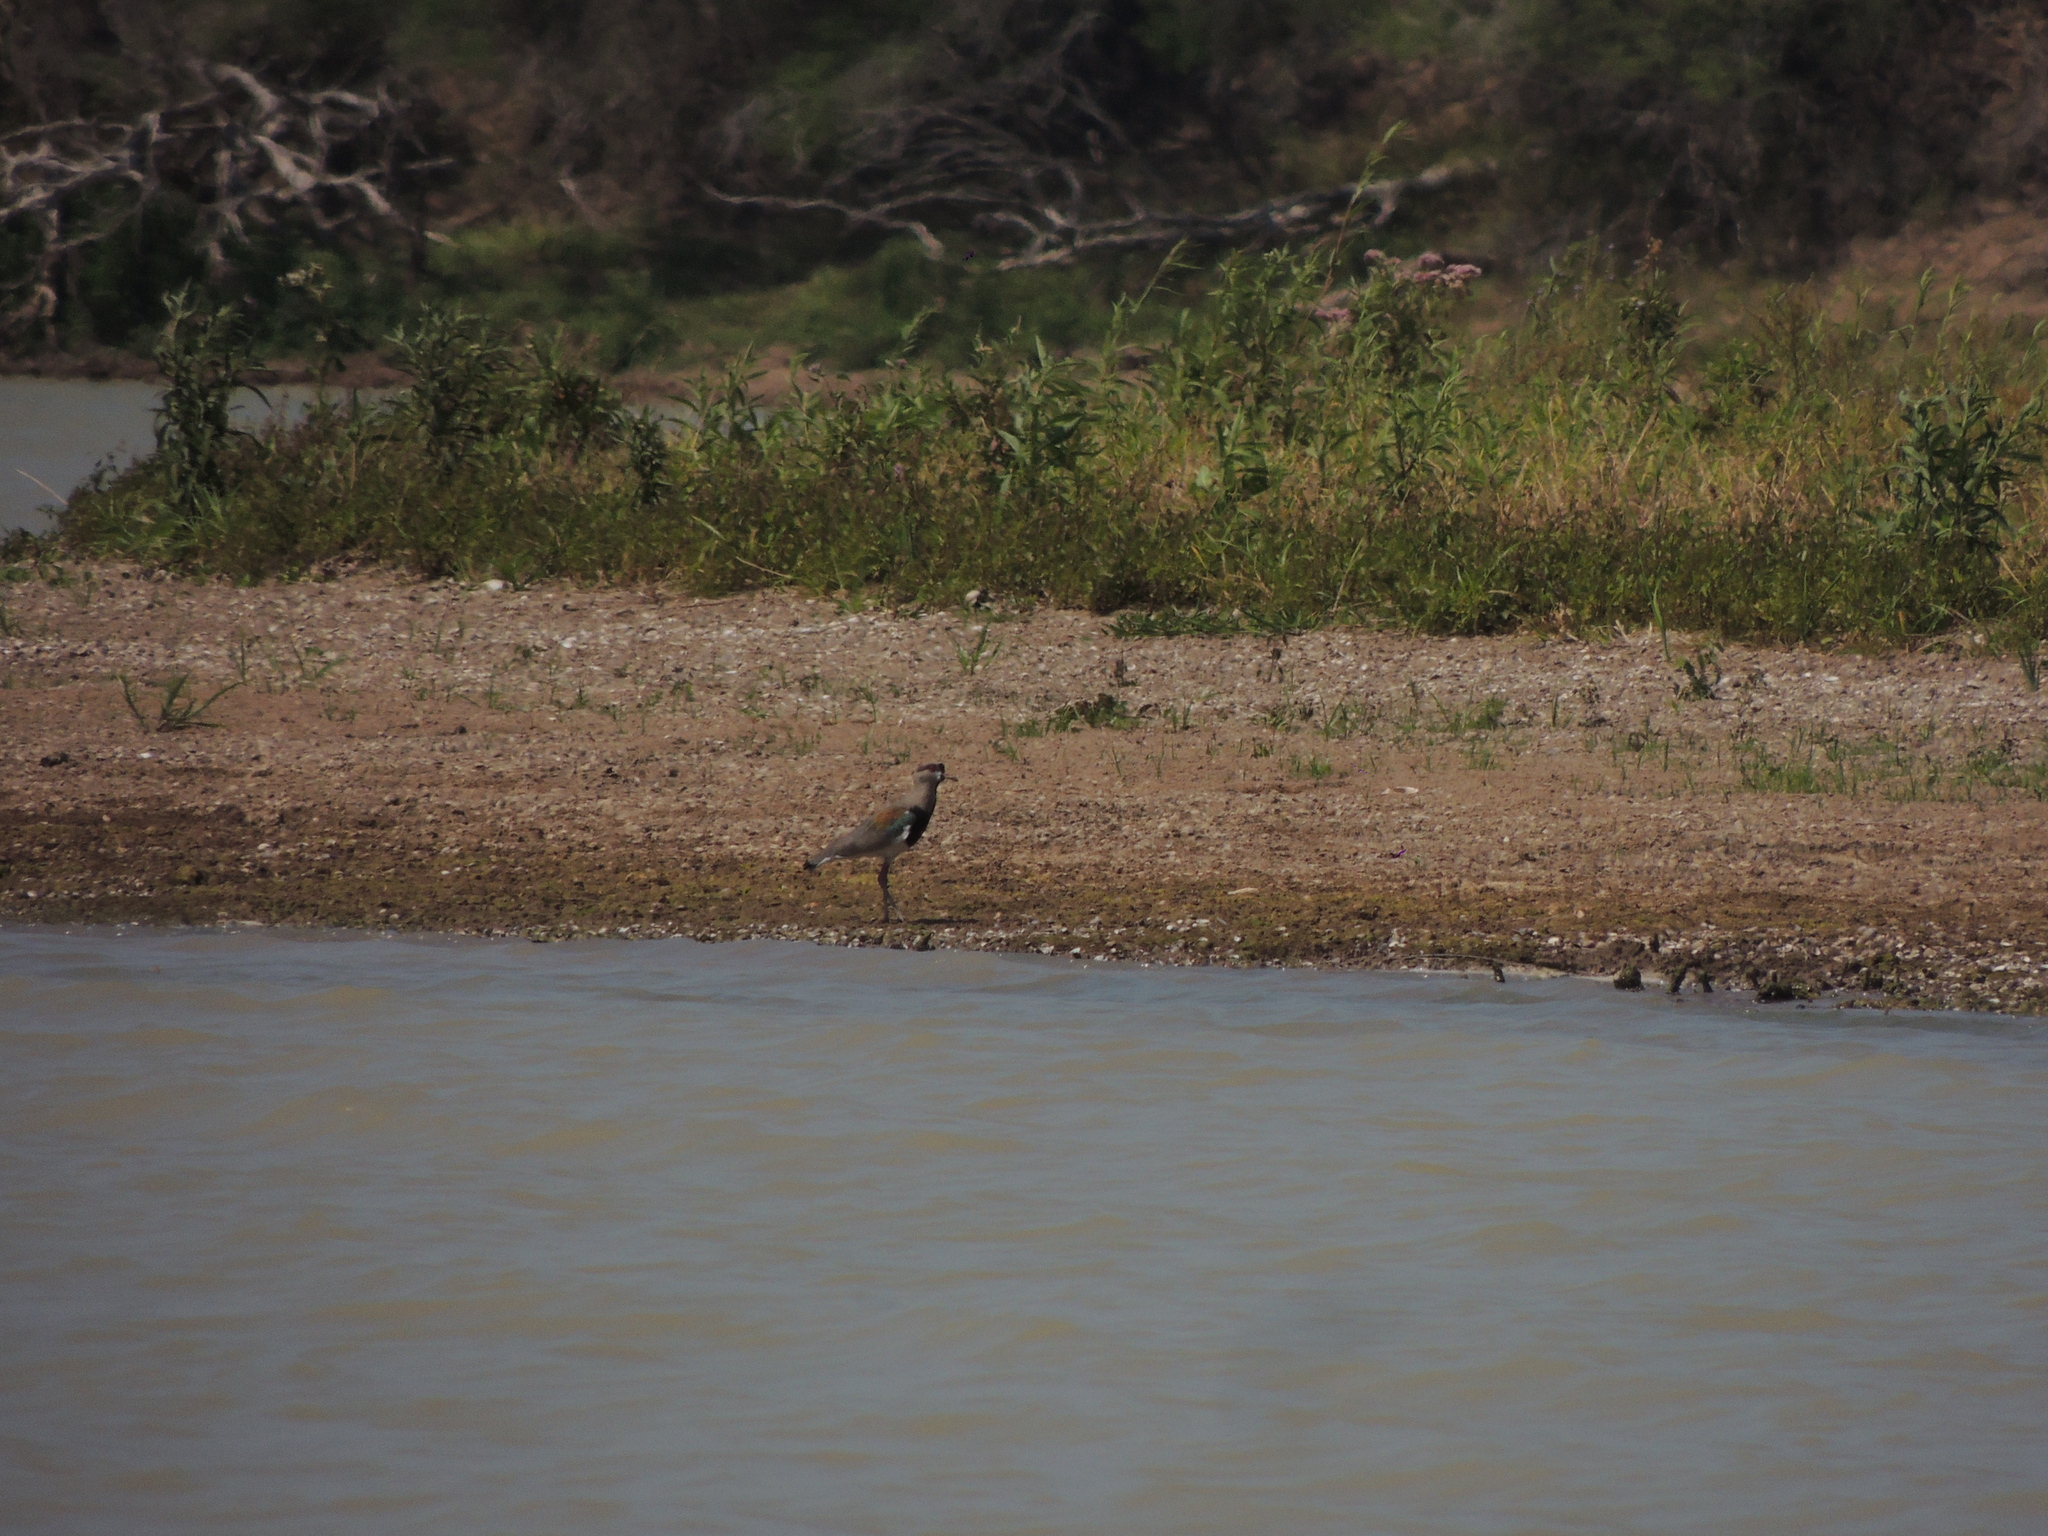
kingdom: Animalia
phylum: Chordata
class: Aves
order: Charadriiformes
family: Charadriidae
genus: Vanellus
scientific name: Vanellus chilensis
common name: Southern lapwing
